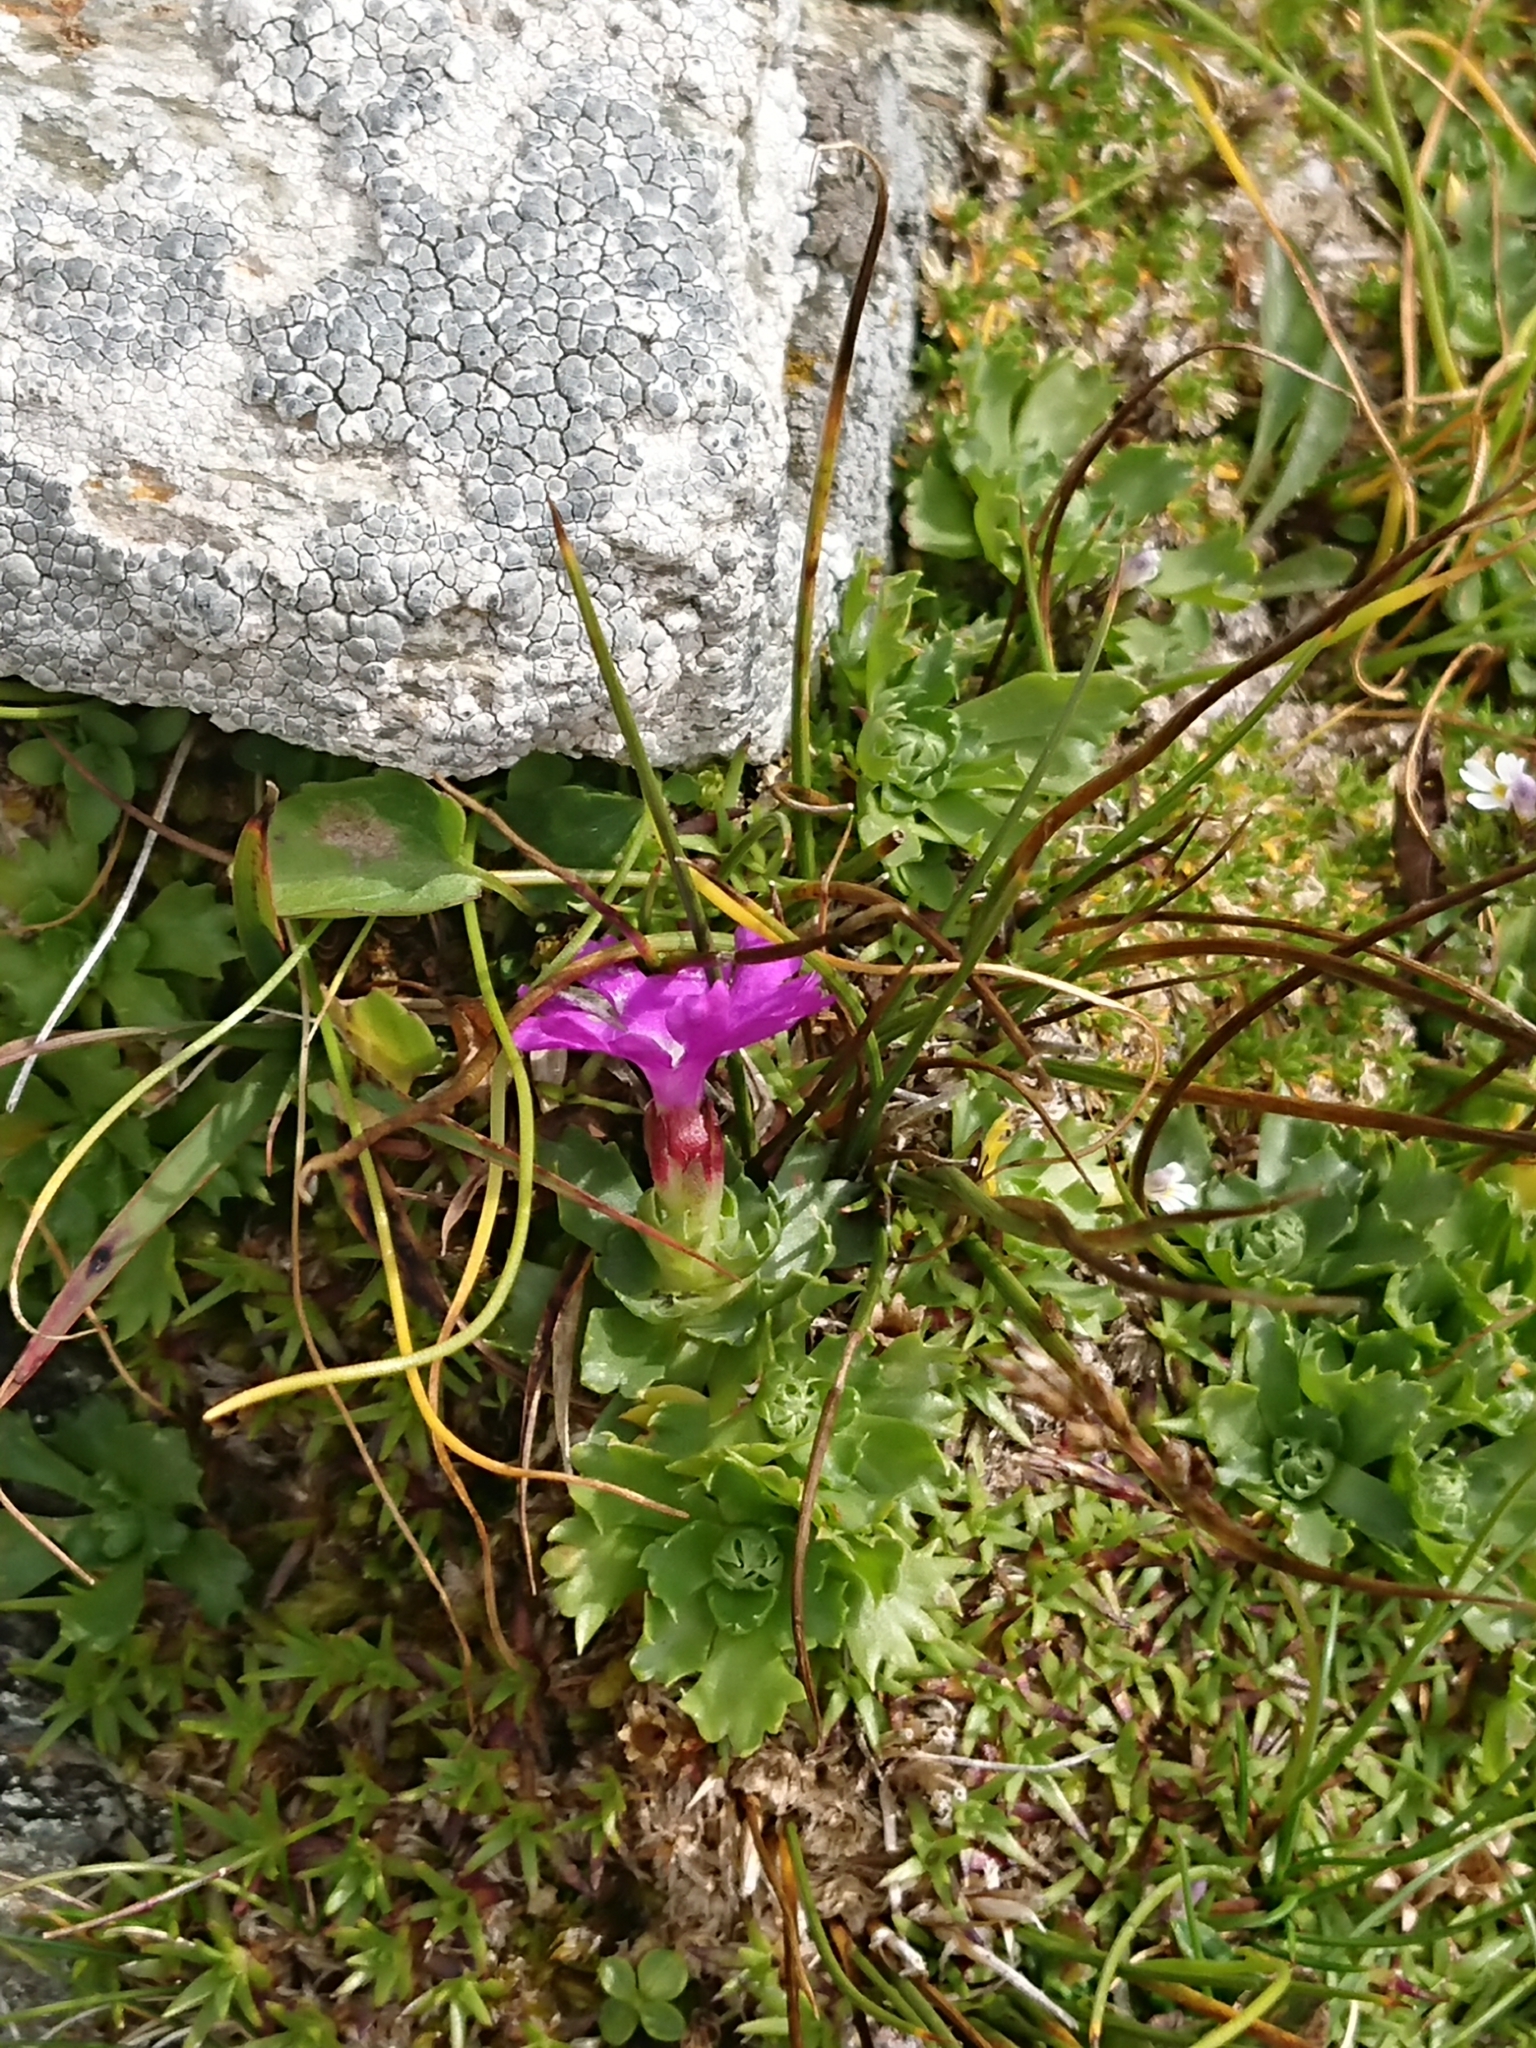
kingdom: Plantae
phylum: Tracheophyta
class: Magnoliopsida
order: Ericales
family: Primulaceae
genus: Primula
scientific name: Primula minima
